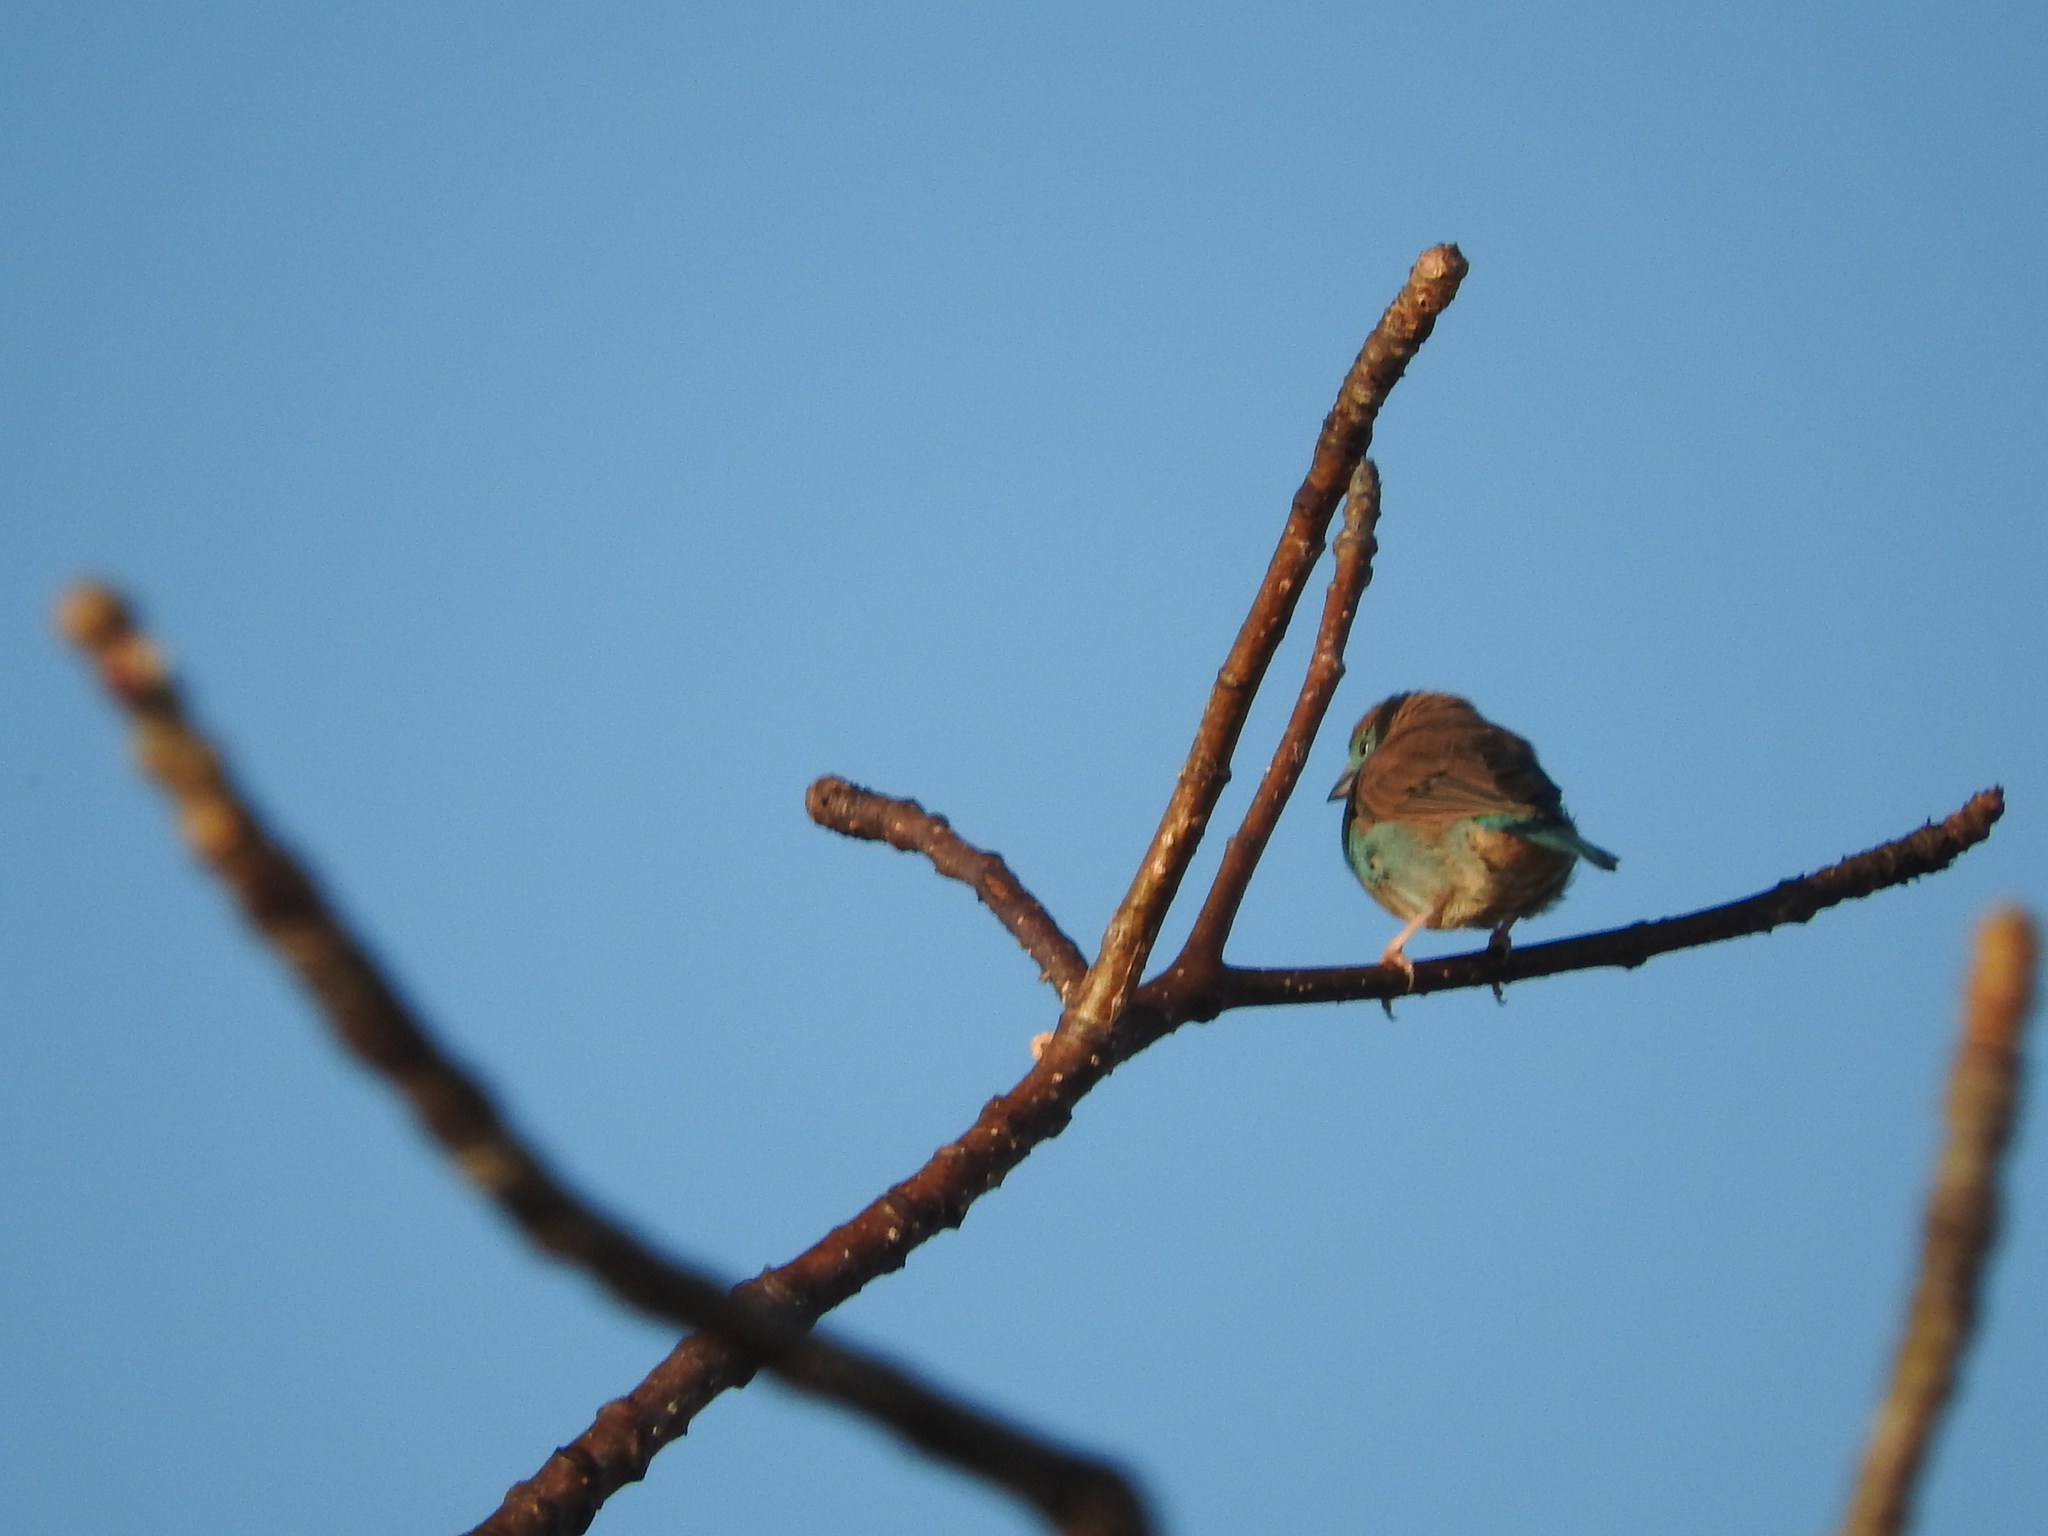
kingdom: Animalia
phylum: Chordata
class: Aves
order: Passeriformes
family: Estrildidae
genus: Uraeginthus
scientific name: Uraeginthus angolensis
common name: Blue waxbill
